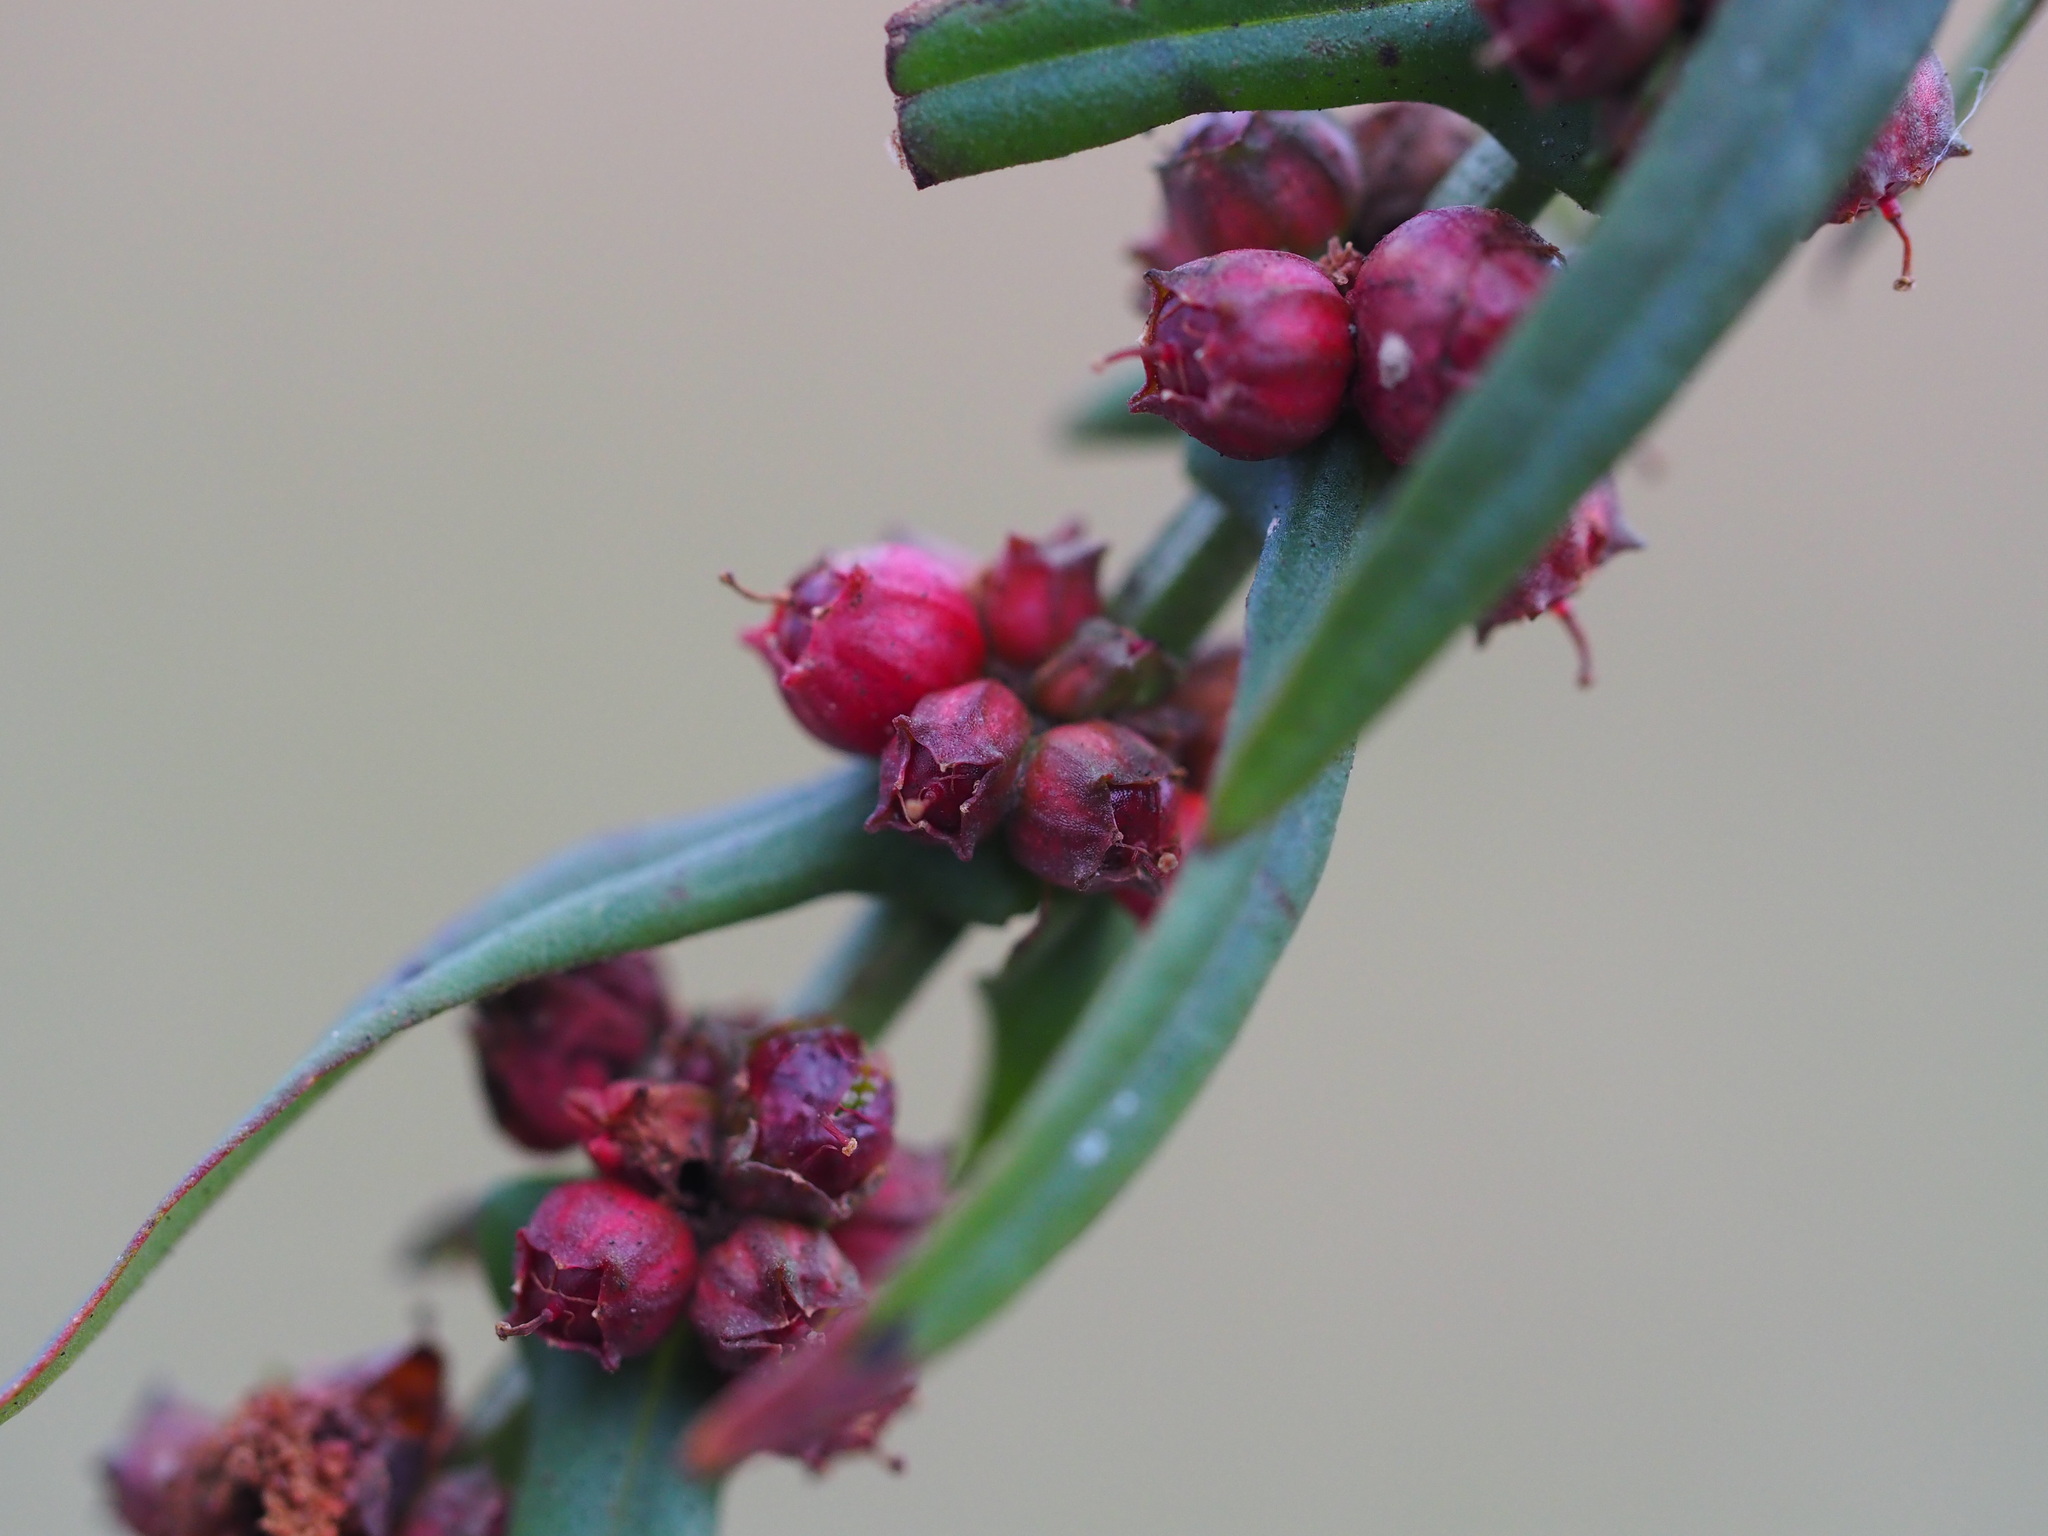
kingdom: Plantae
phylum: Tracheophyta
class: Magnoliopsida
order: Myrtales
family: Lythraceae
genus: Ammannia
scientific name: Ammannia auriculata
